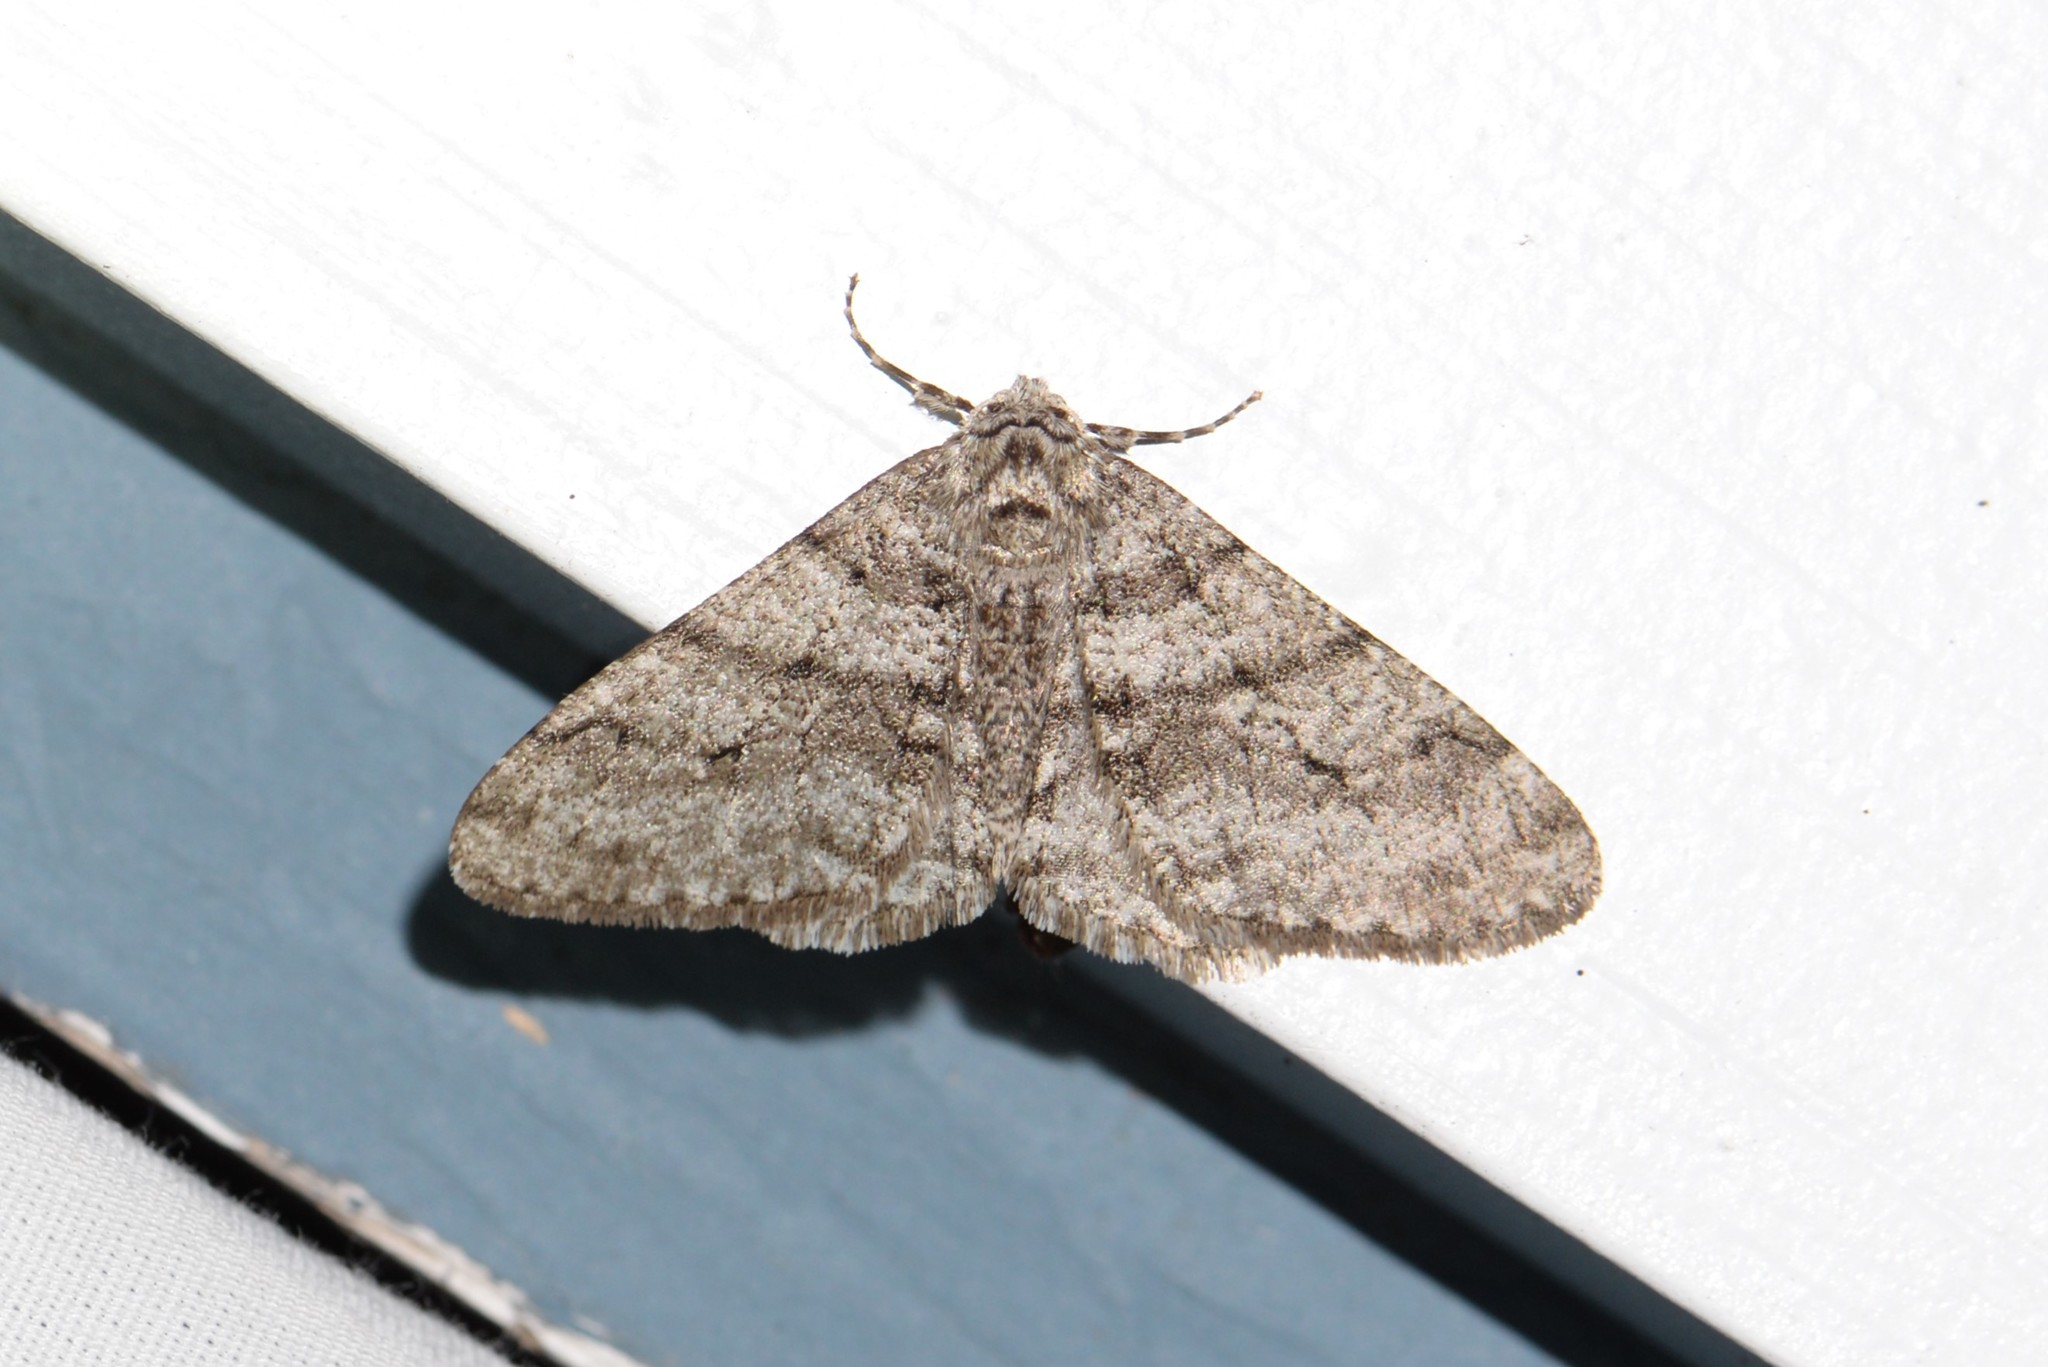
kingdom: Animalia
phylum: Arthropoda
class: Insecta
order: Lepidoptera
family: Geometridae
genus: Phigalia
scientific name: Phigalia titea
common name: Spiny looper
